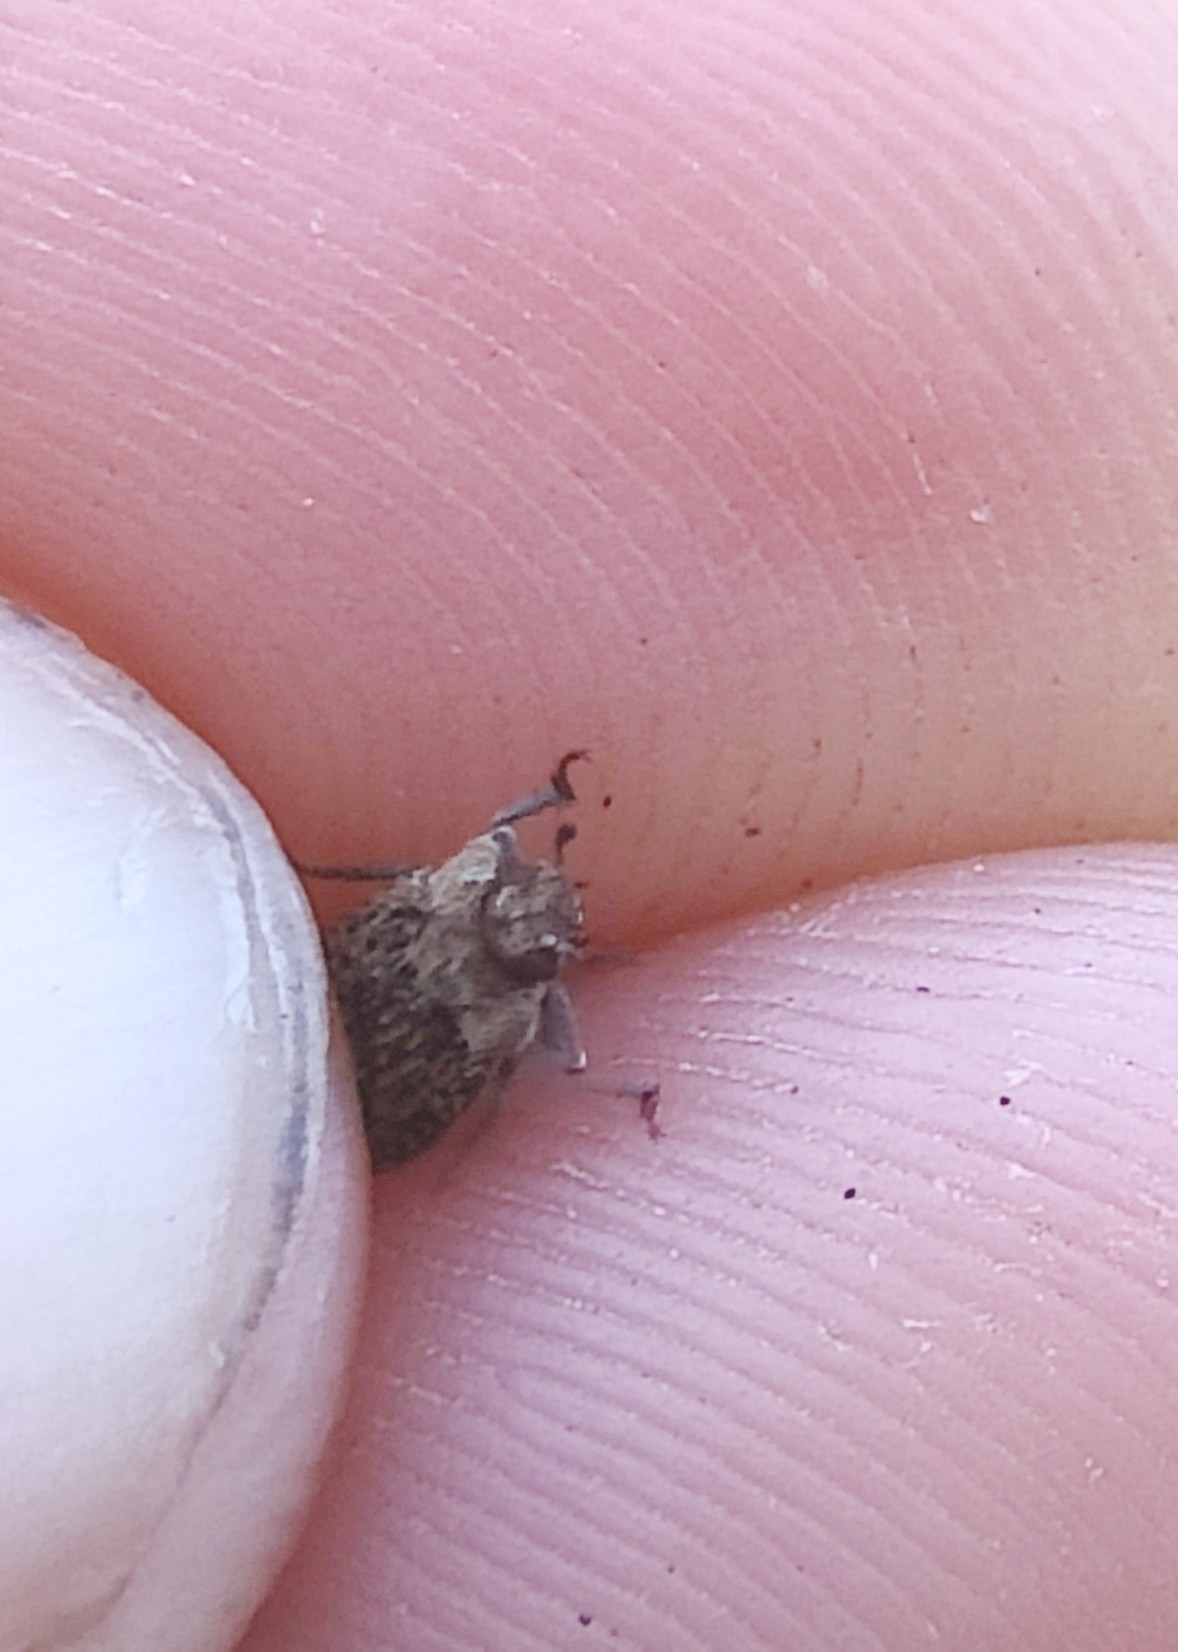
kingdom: Animalia
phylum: Arthropoda
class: Insecta
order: Coleoptera
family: Tenebrionidae
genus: Leichenum
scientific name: Leichenum canaliculatum
